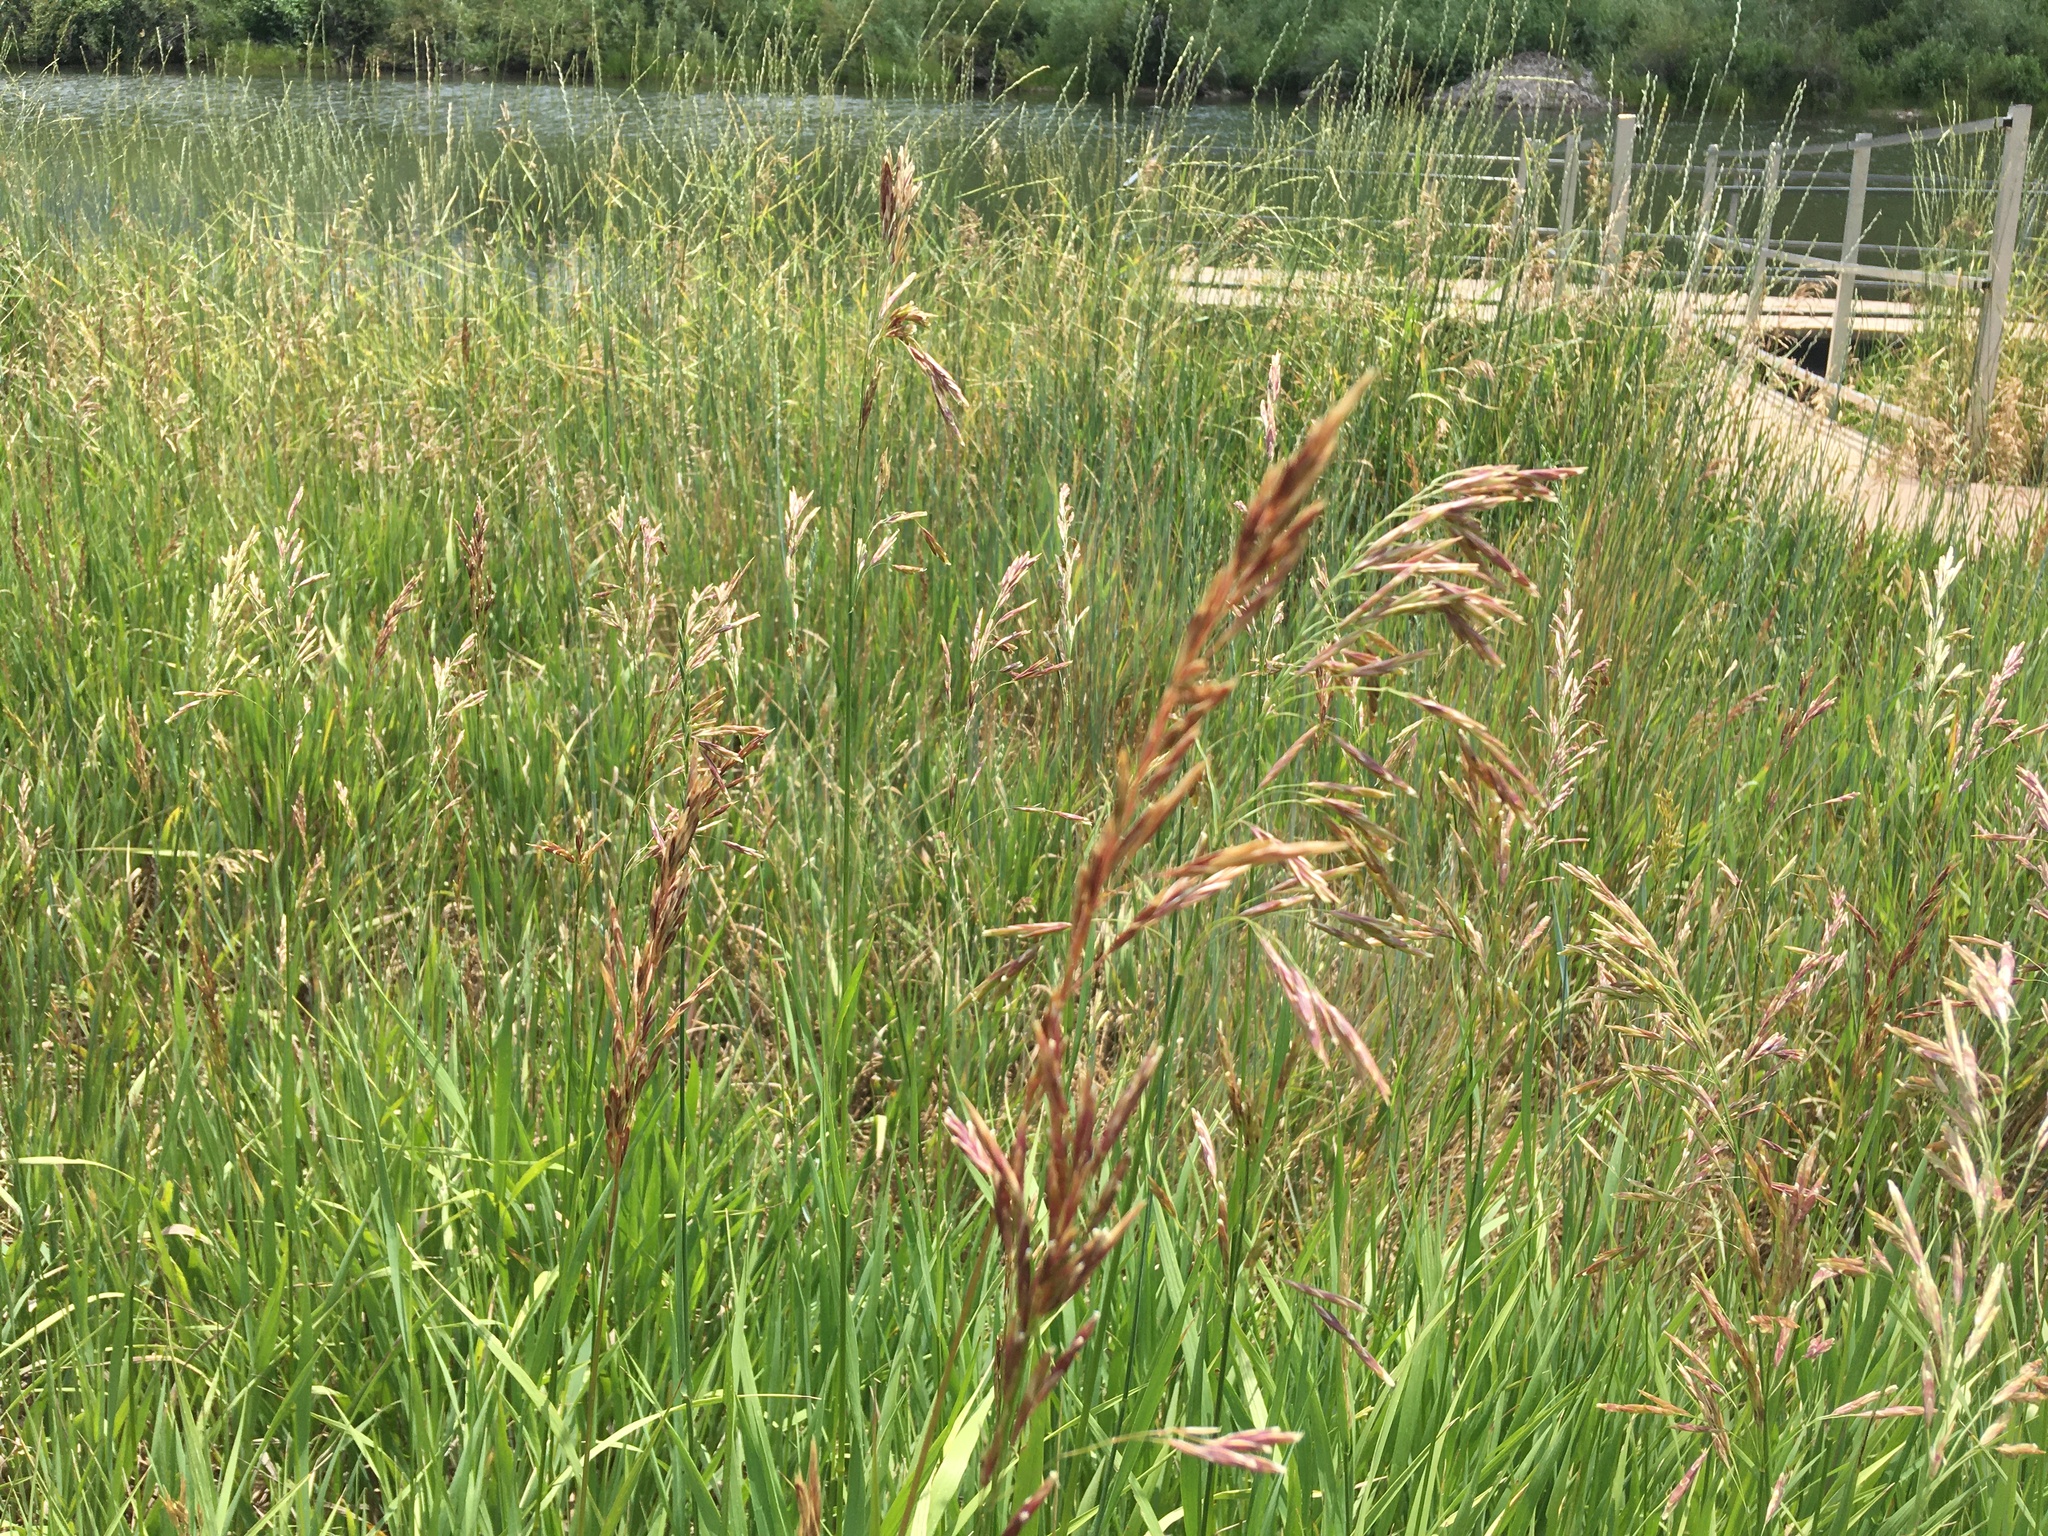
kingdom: Plantae
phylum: Tracheophyta
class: Liliopsida
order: Poales
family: Poaceae
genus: Bromus
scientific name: Bromus inermis
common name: Smooth brome
